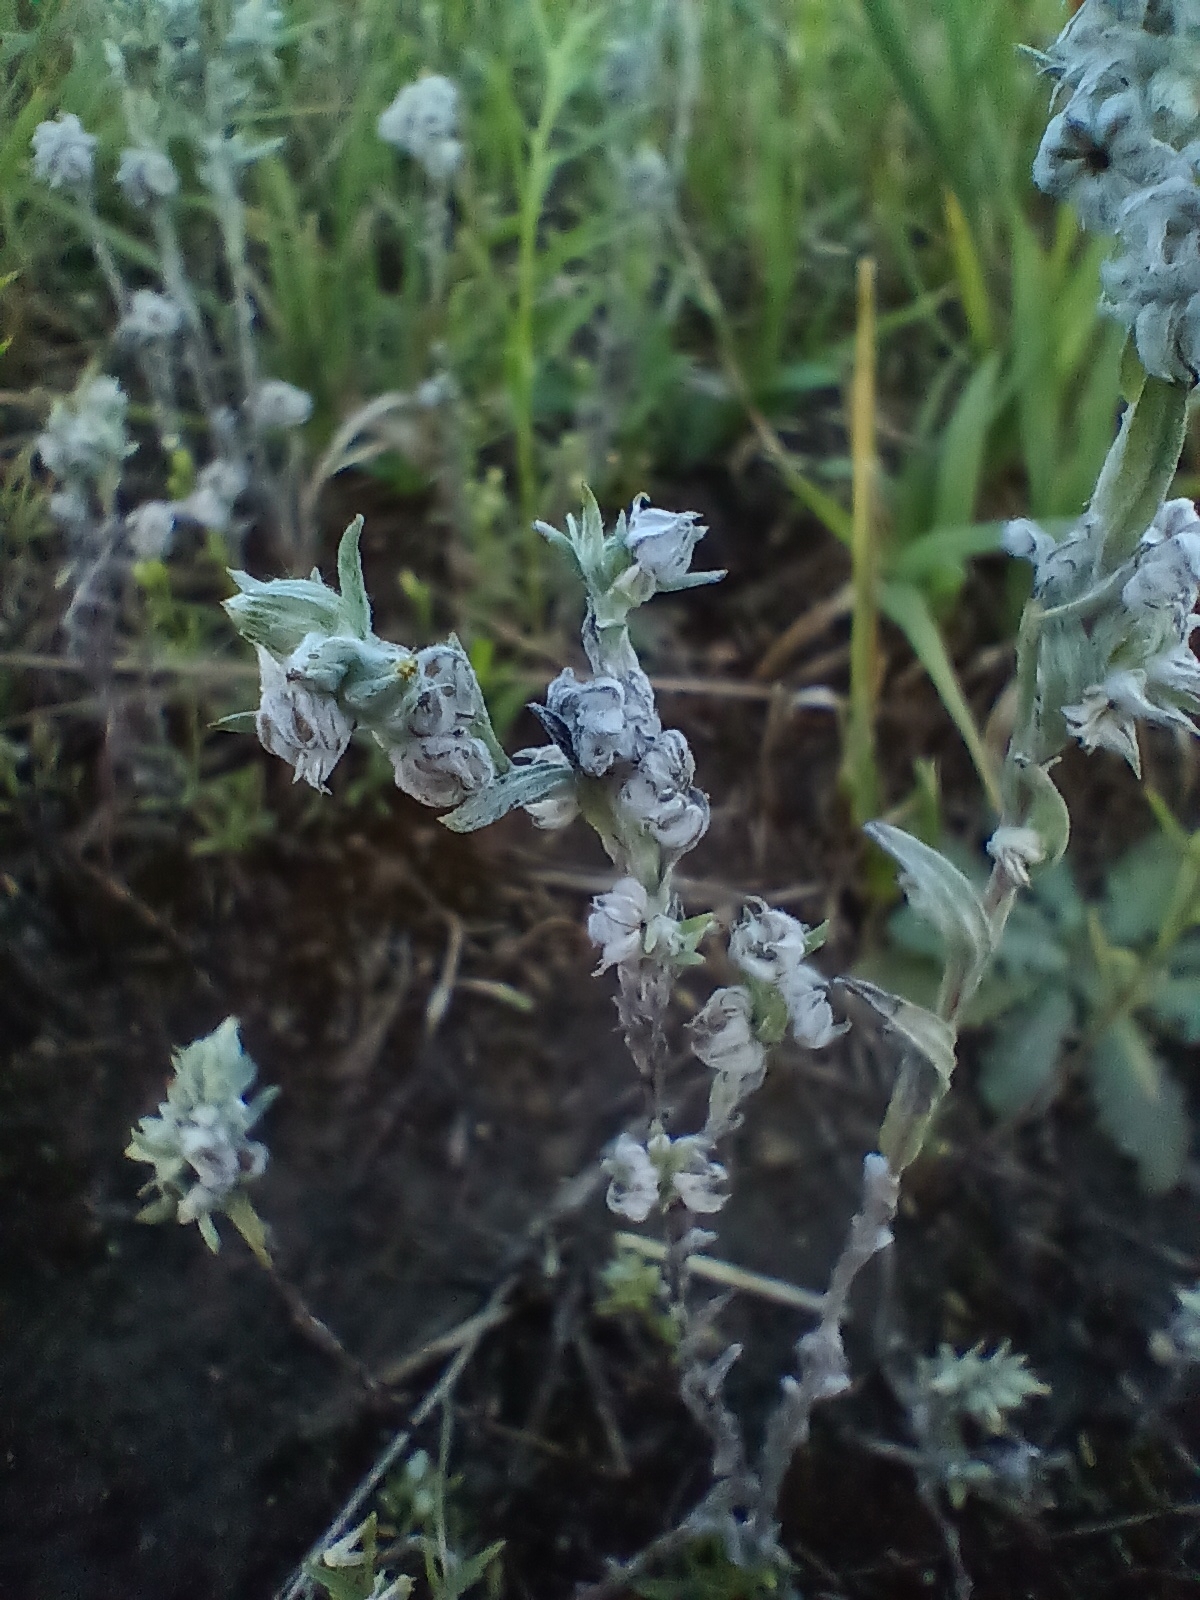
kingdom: Plantae
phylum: Tracheophyta
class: Magnoliopsida
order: Asterales
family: Asteraceae
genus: Filago
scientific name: Filago arvensis
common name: Field cudweed
